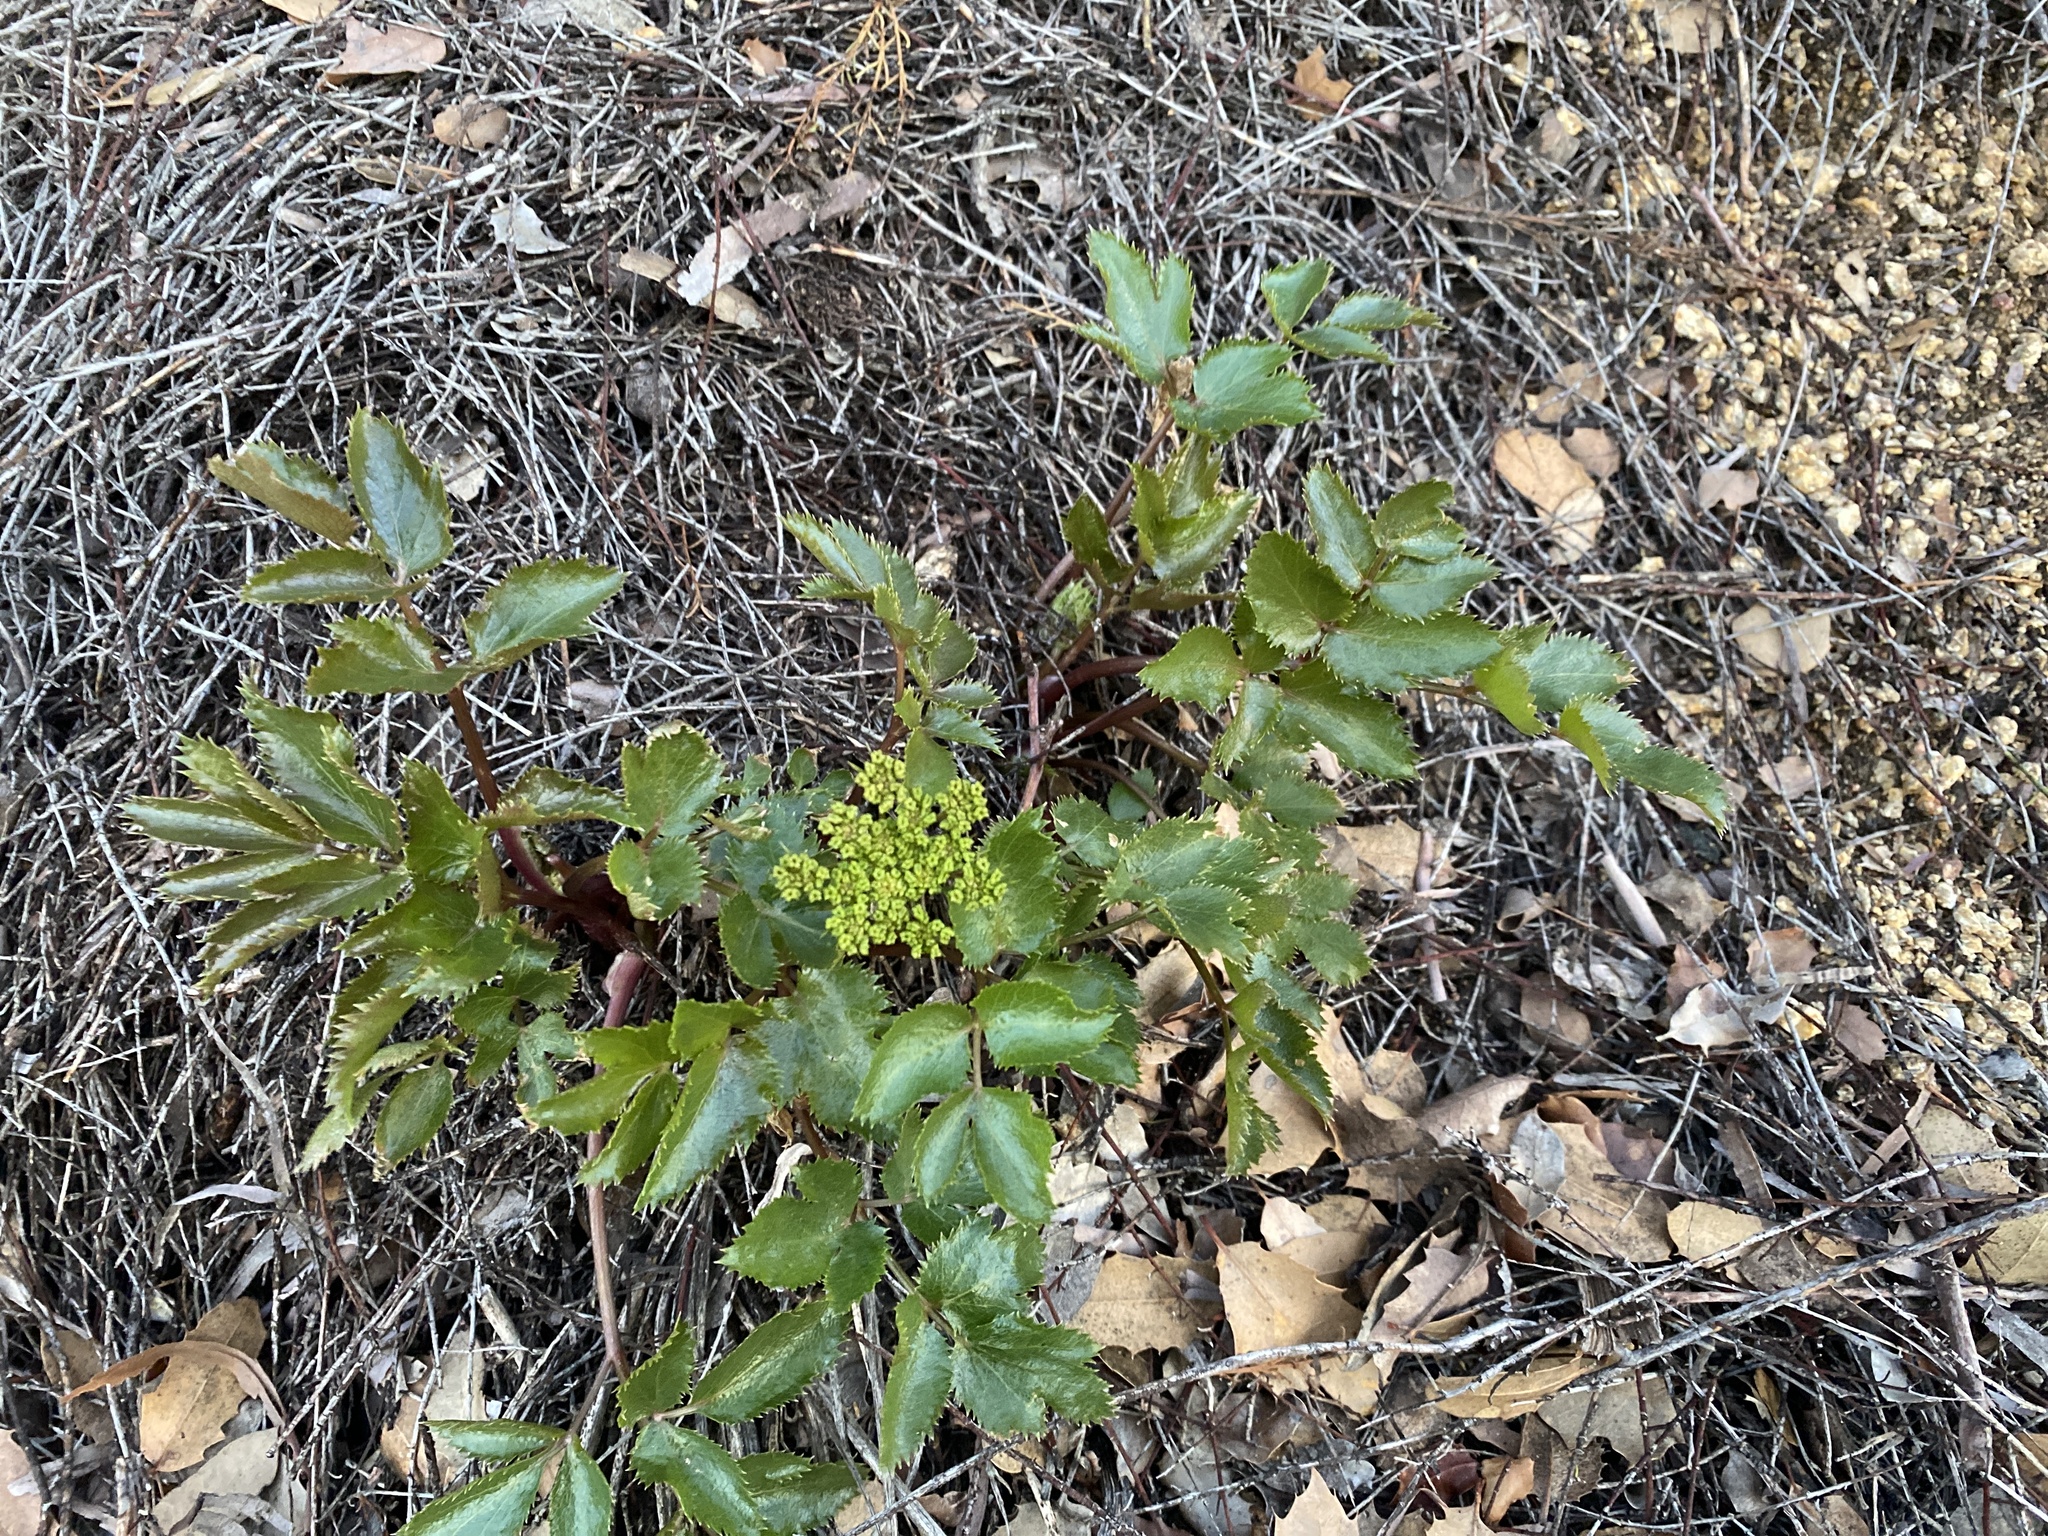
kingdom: Plantae
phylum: Tracheophyta
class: Magnoliopsida
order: Apiales
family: Apiaceae
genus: Tauschia
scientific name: Tauschia arguta
